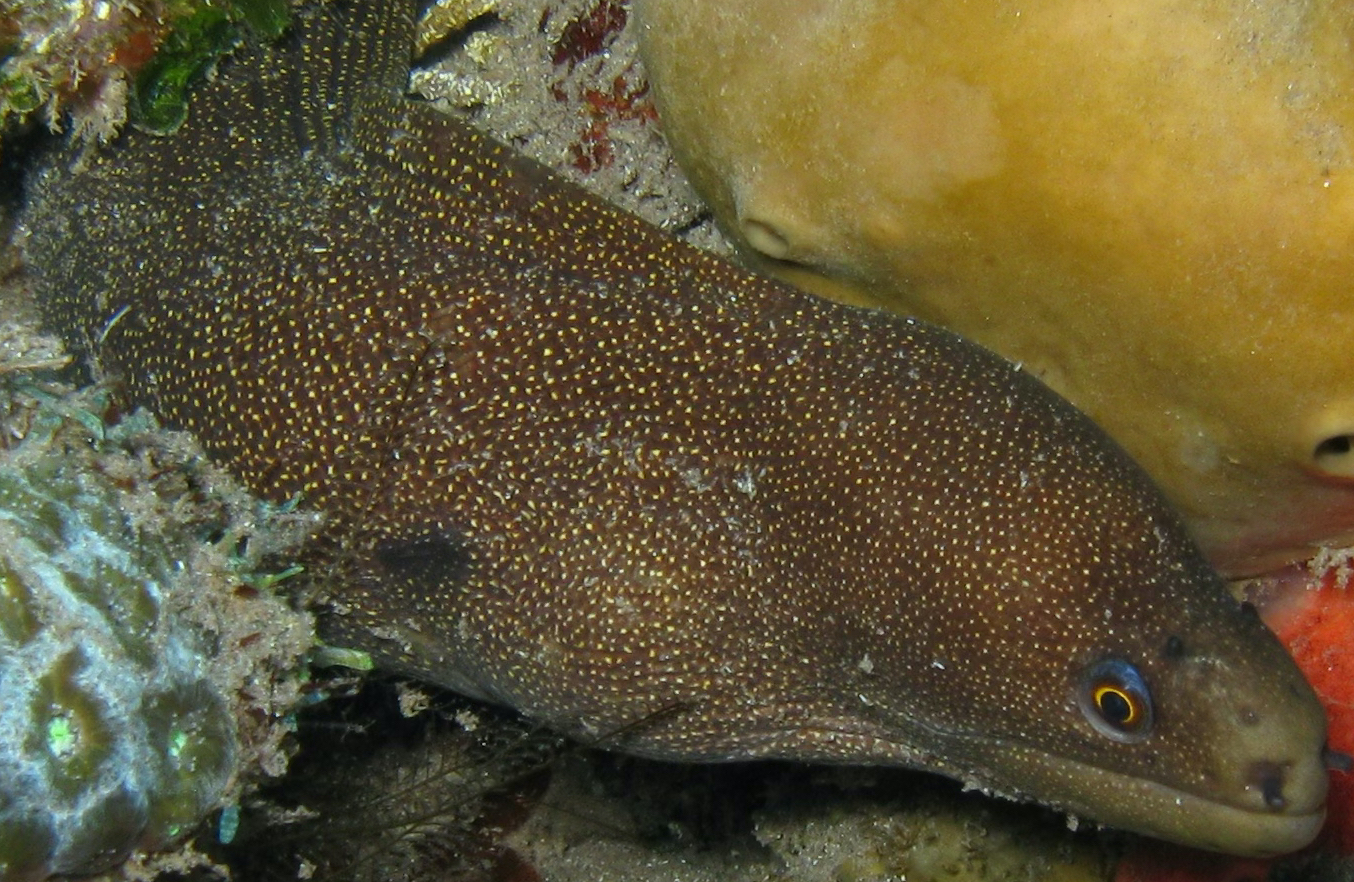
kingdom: Animalia
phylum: Chordata
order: Anguilliformes
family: Muraenidae
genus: Gymnothorax
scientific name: Gymnothorax miliaris
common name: Goldentail moray
